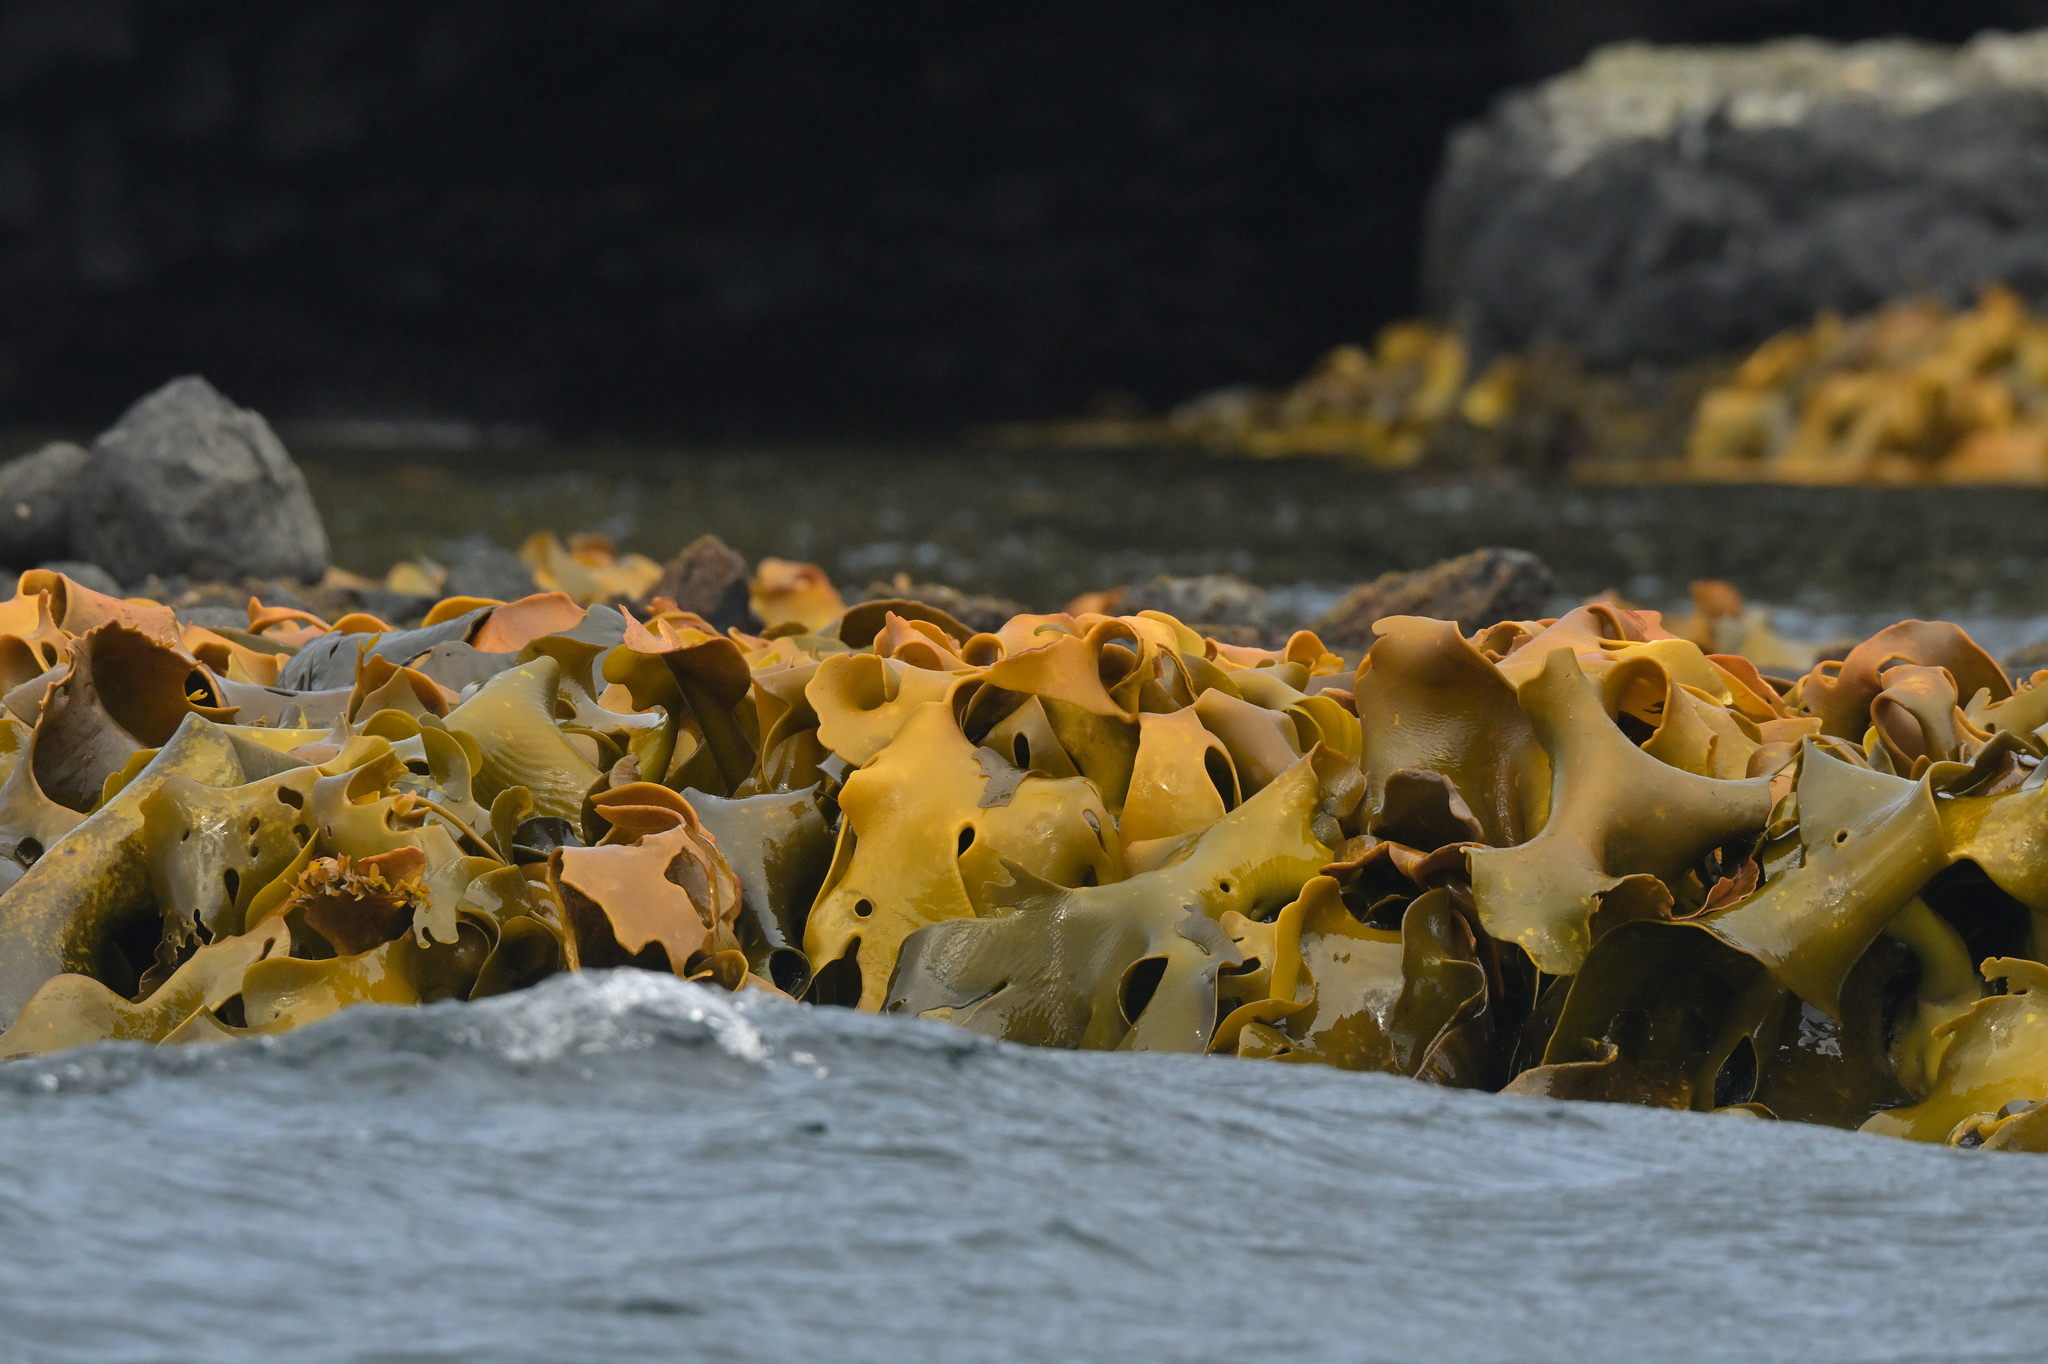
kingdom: Chromista
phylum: Ochrophyta
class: Phaeophyceae
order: Fucales
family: Durvillaeaceae
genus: Durvillaea
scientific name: Durvillaea poha
